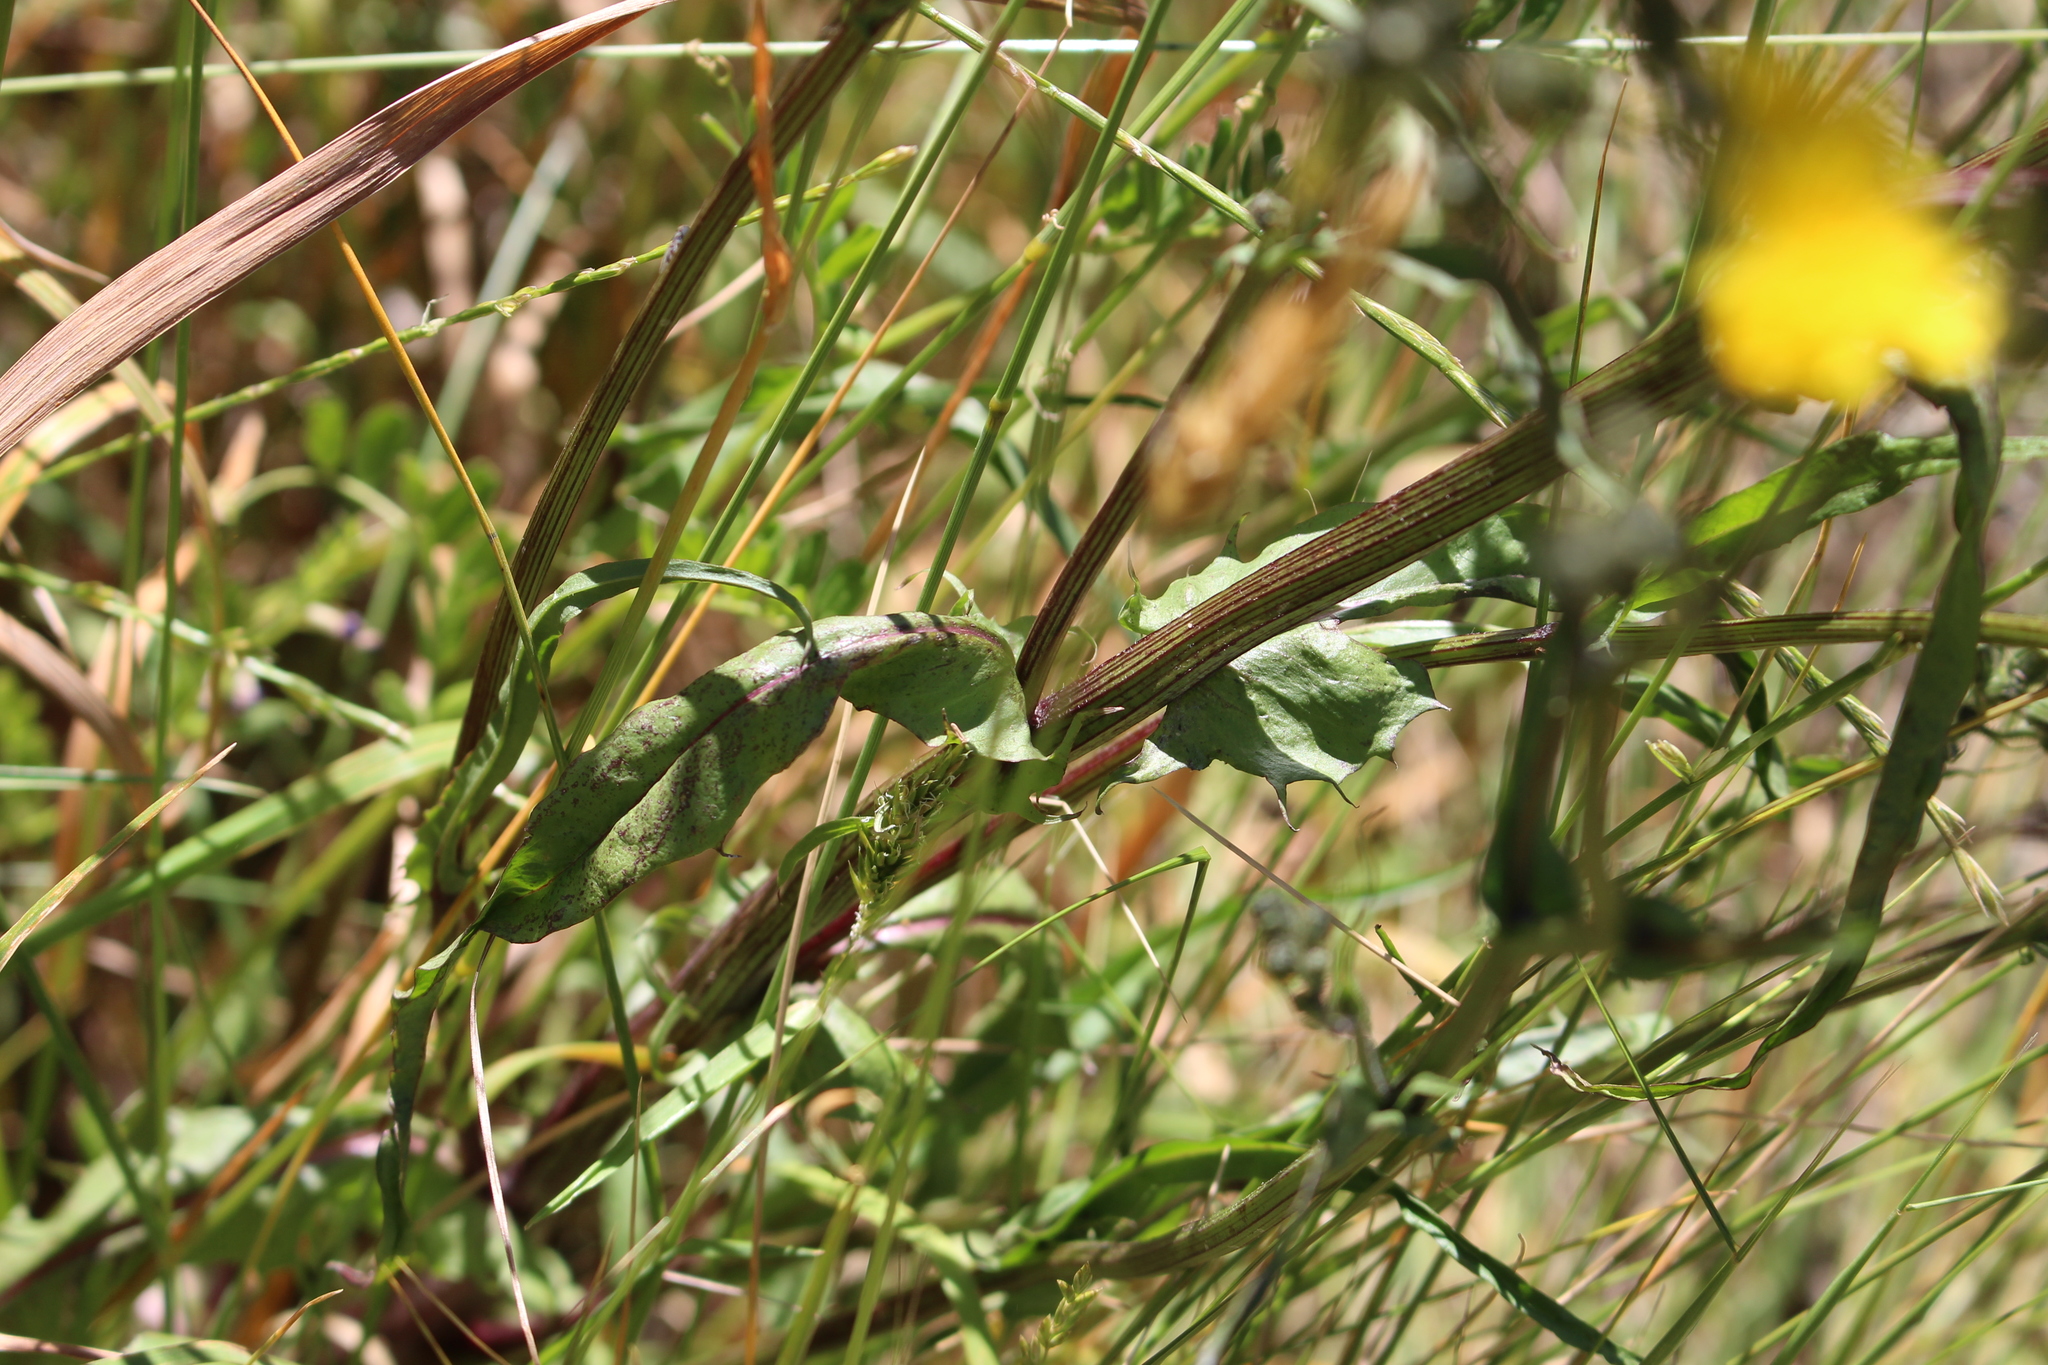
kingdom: Plantae
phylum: Tracheophyta
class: Magnoliopsida
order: Asterales
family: Asteraceae
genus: Crepis
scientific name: Crepis capillaris
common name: Smooth hawksbeard
